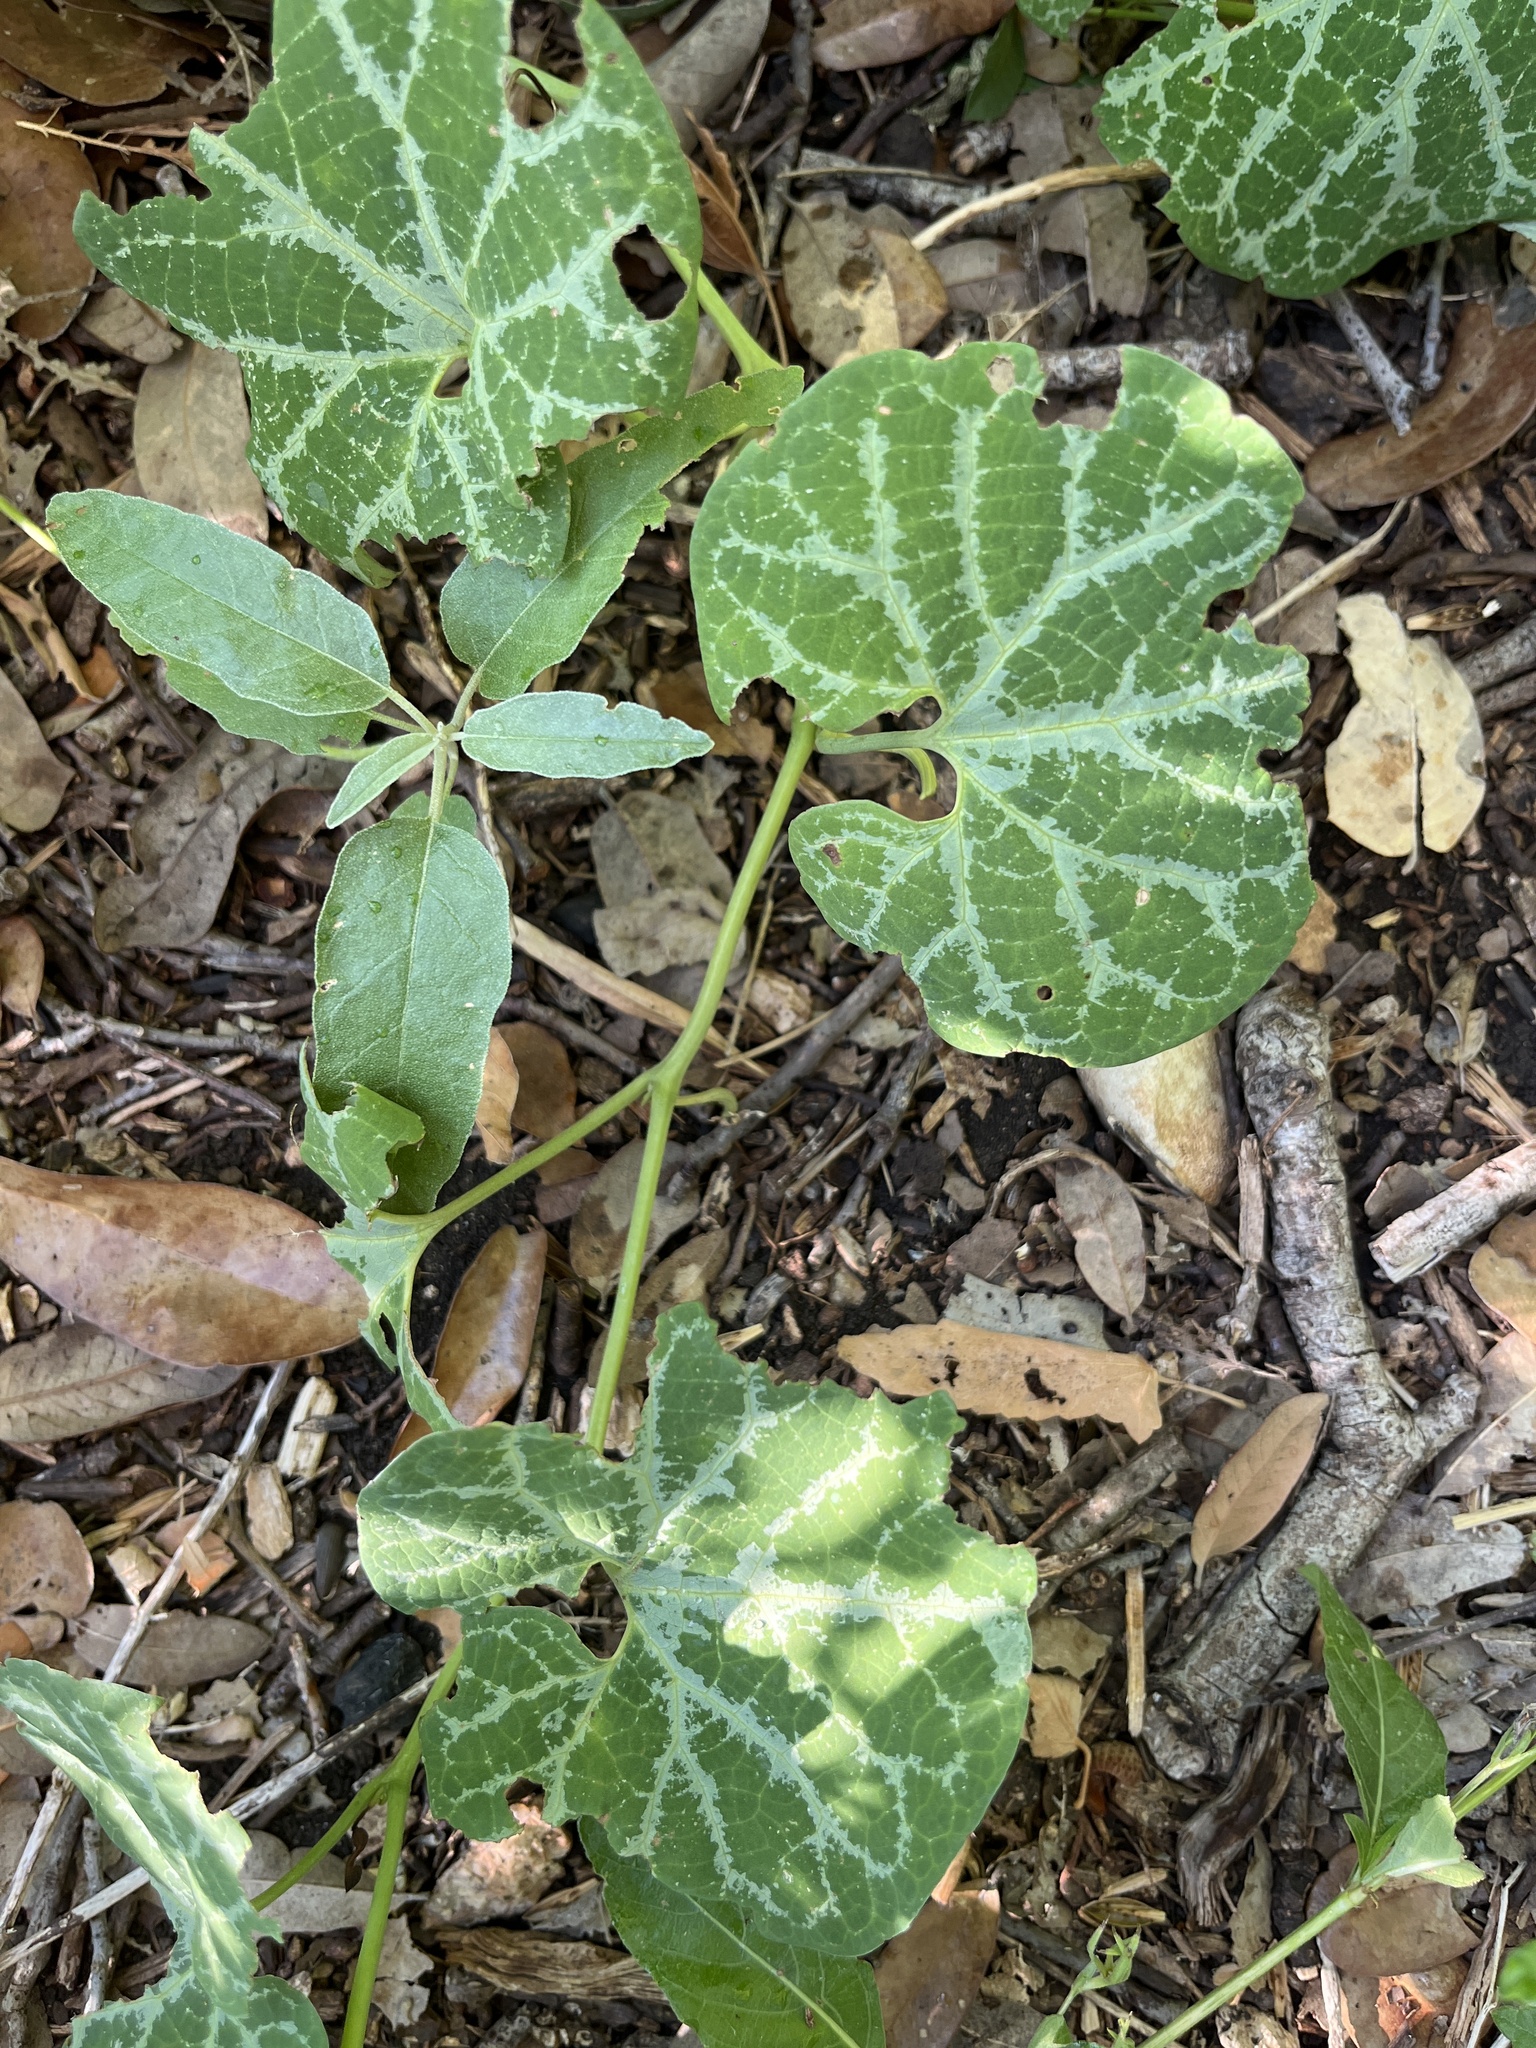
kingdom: Plantae
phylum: Tracheophyta
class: Magnoliopsida
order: Piperales
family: Aristolochiaceae
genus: Aristolochia
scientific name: Aristolochia fimbriata
